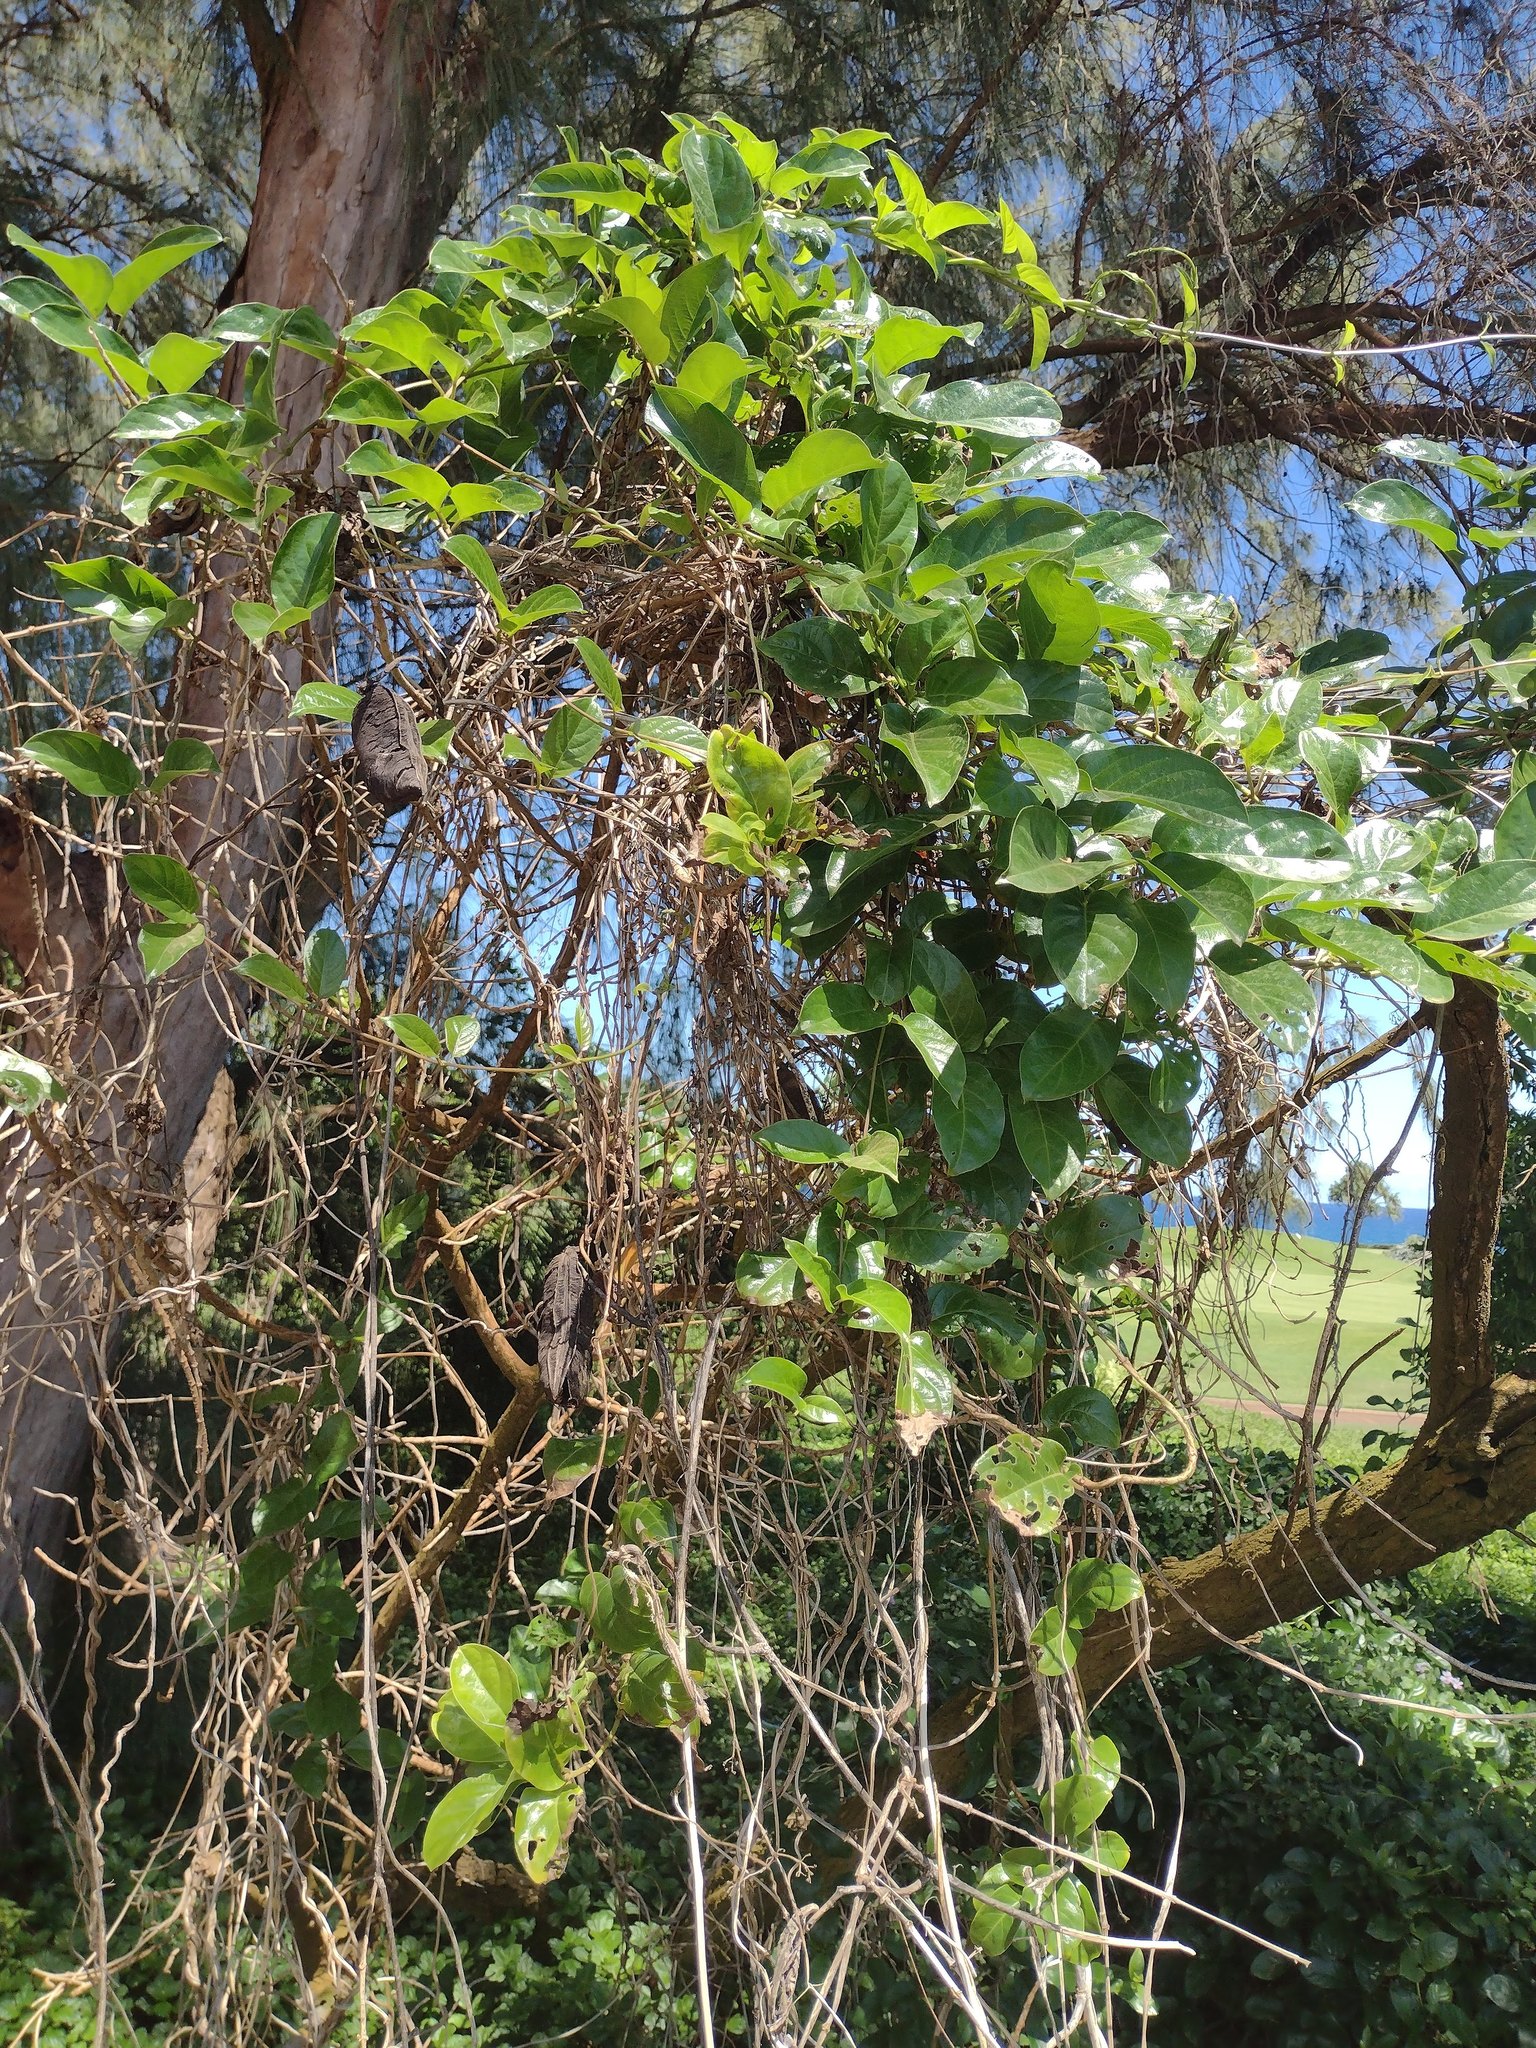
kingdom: Plantae
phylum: Tracheophyta
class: Magnoliopsida
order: Fabales
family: Fabaceae
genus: Canavalia
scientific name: Canavalia cathartica
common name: Maunaloa
